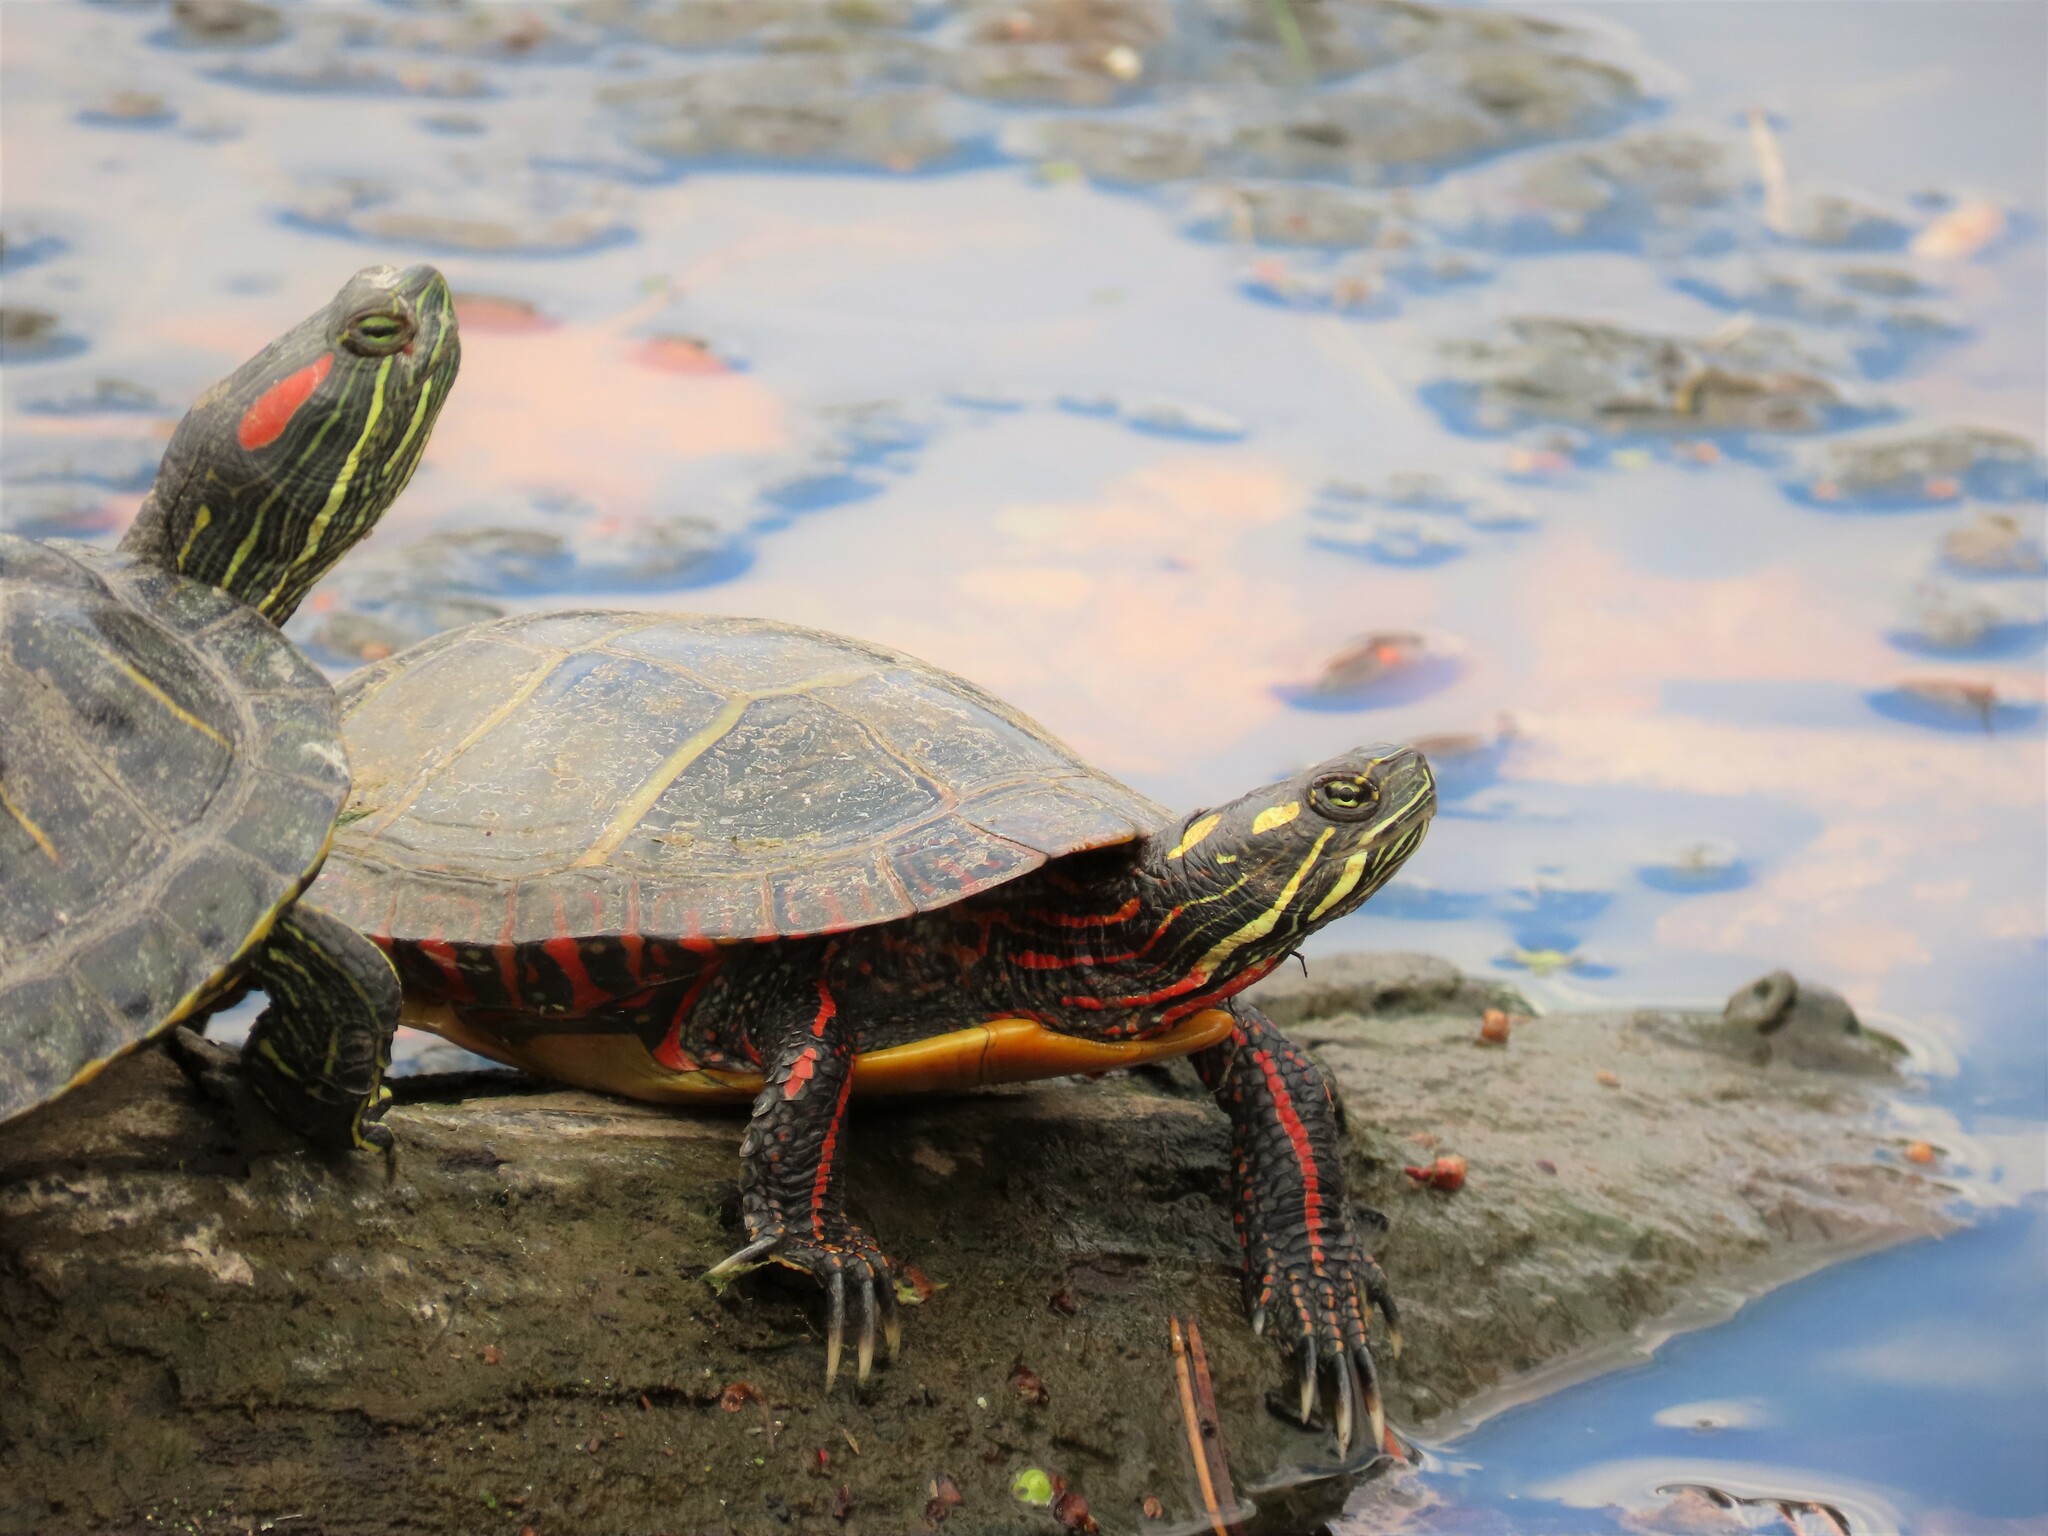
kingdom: Animalia
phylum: Chordata
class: Testudines
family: Emydidae
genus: Chrysemys
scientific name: Chrysemys picta
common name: Painted turtle
